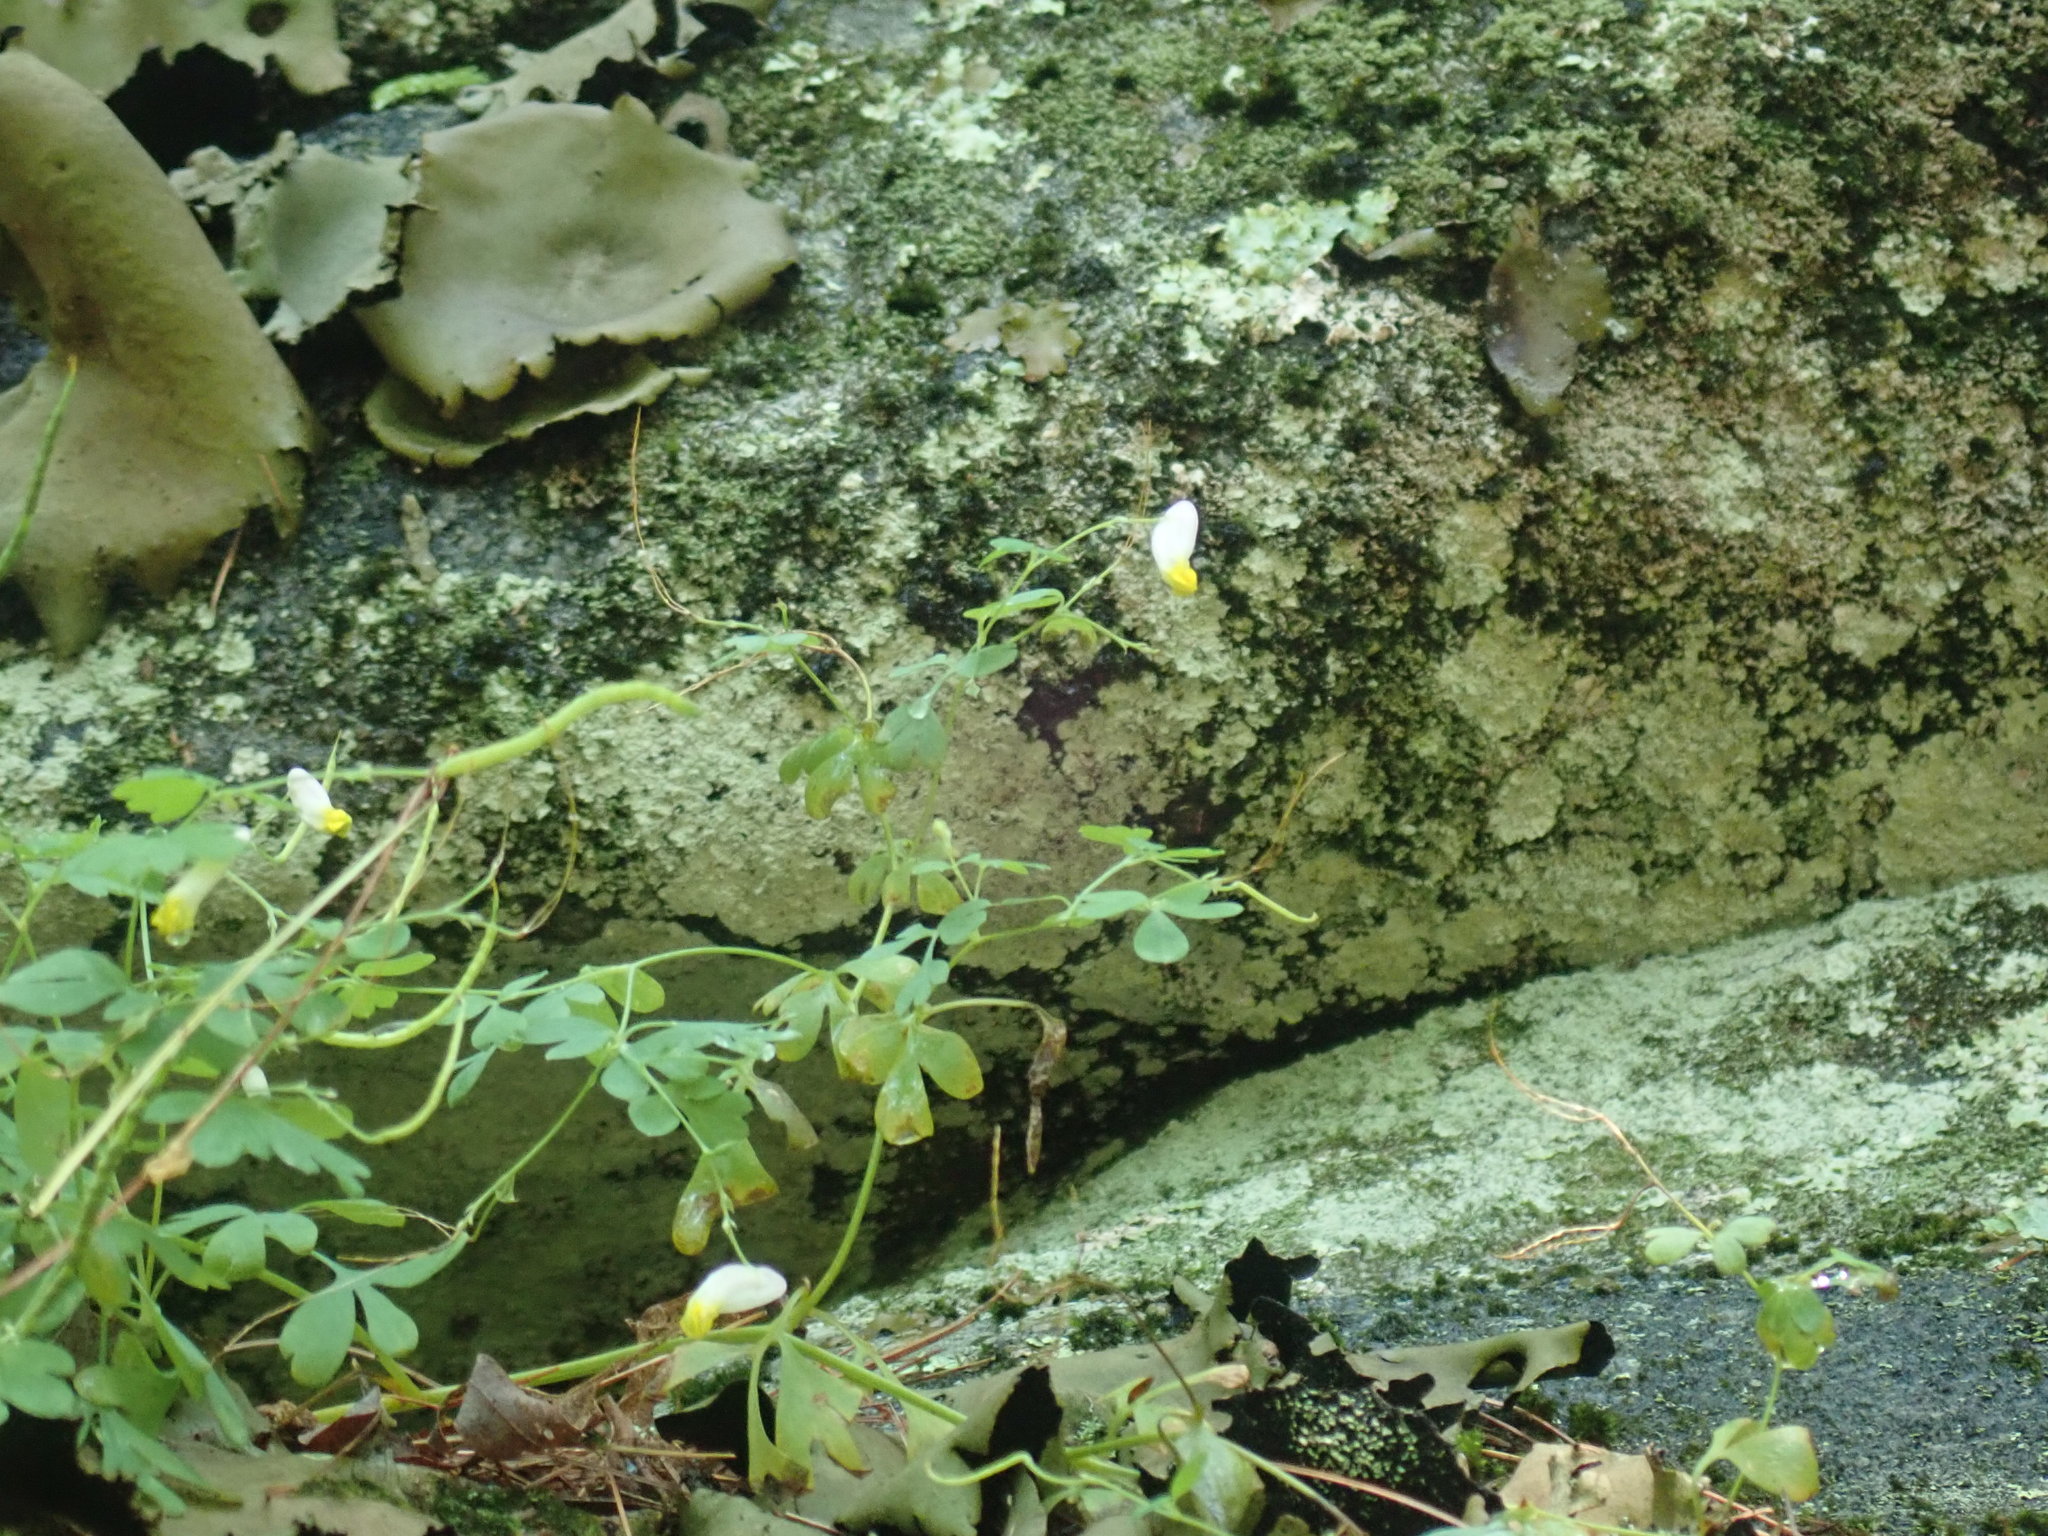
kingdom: Plantae
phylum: Tracheophyta
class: Magnoliopsida
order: Ranunculales
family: Papaveraceae
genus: Capnoides
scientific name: Capnoides sempervirens
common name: Rock harlequin
